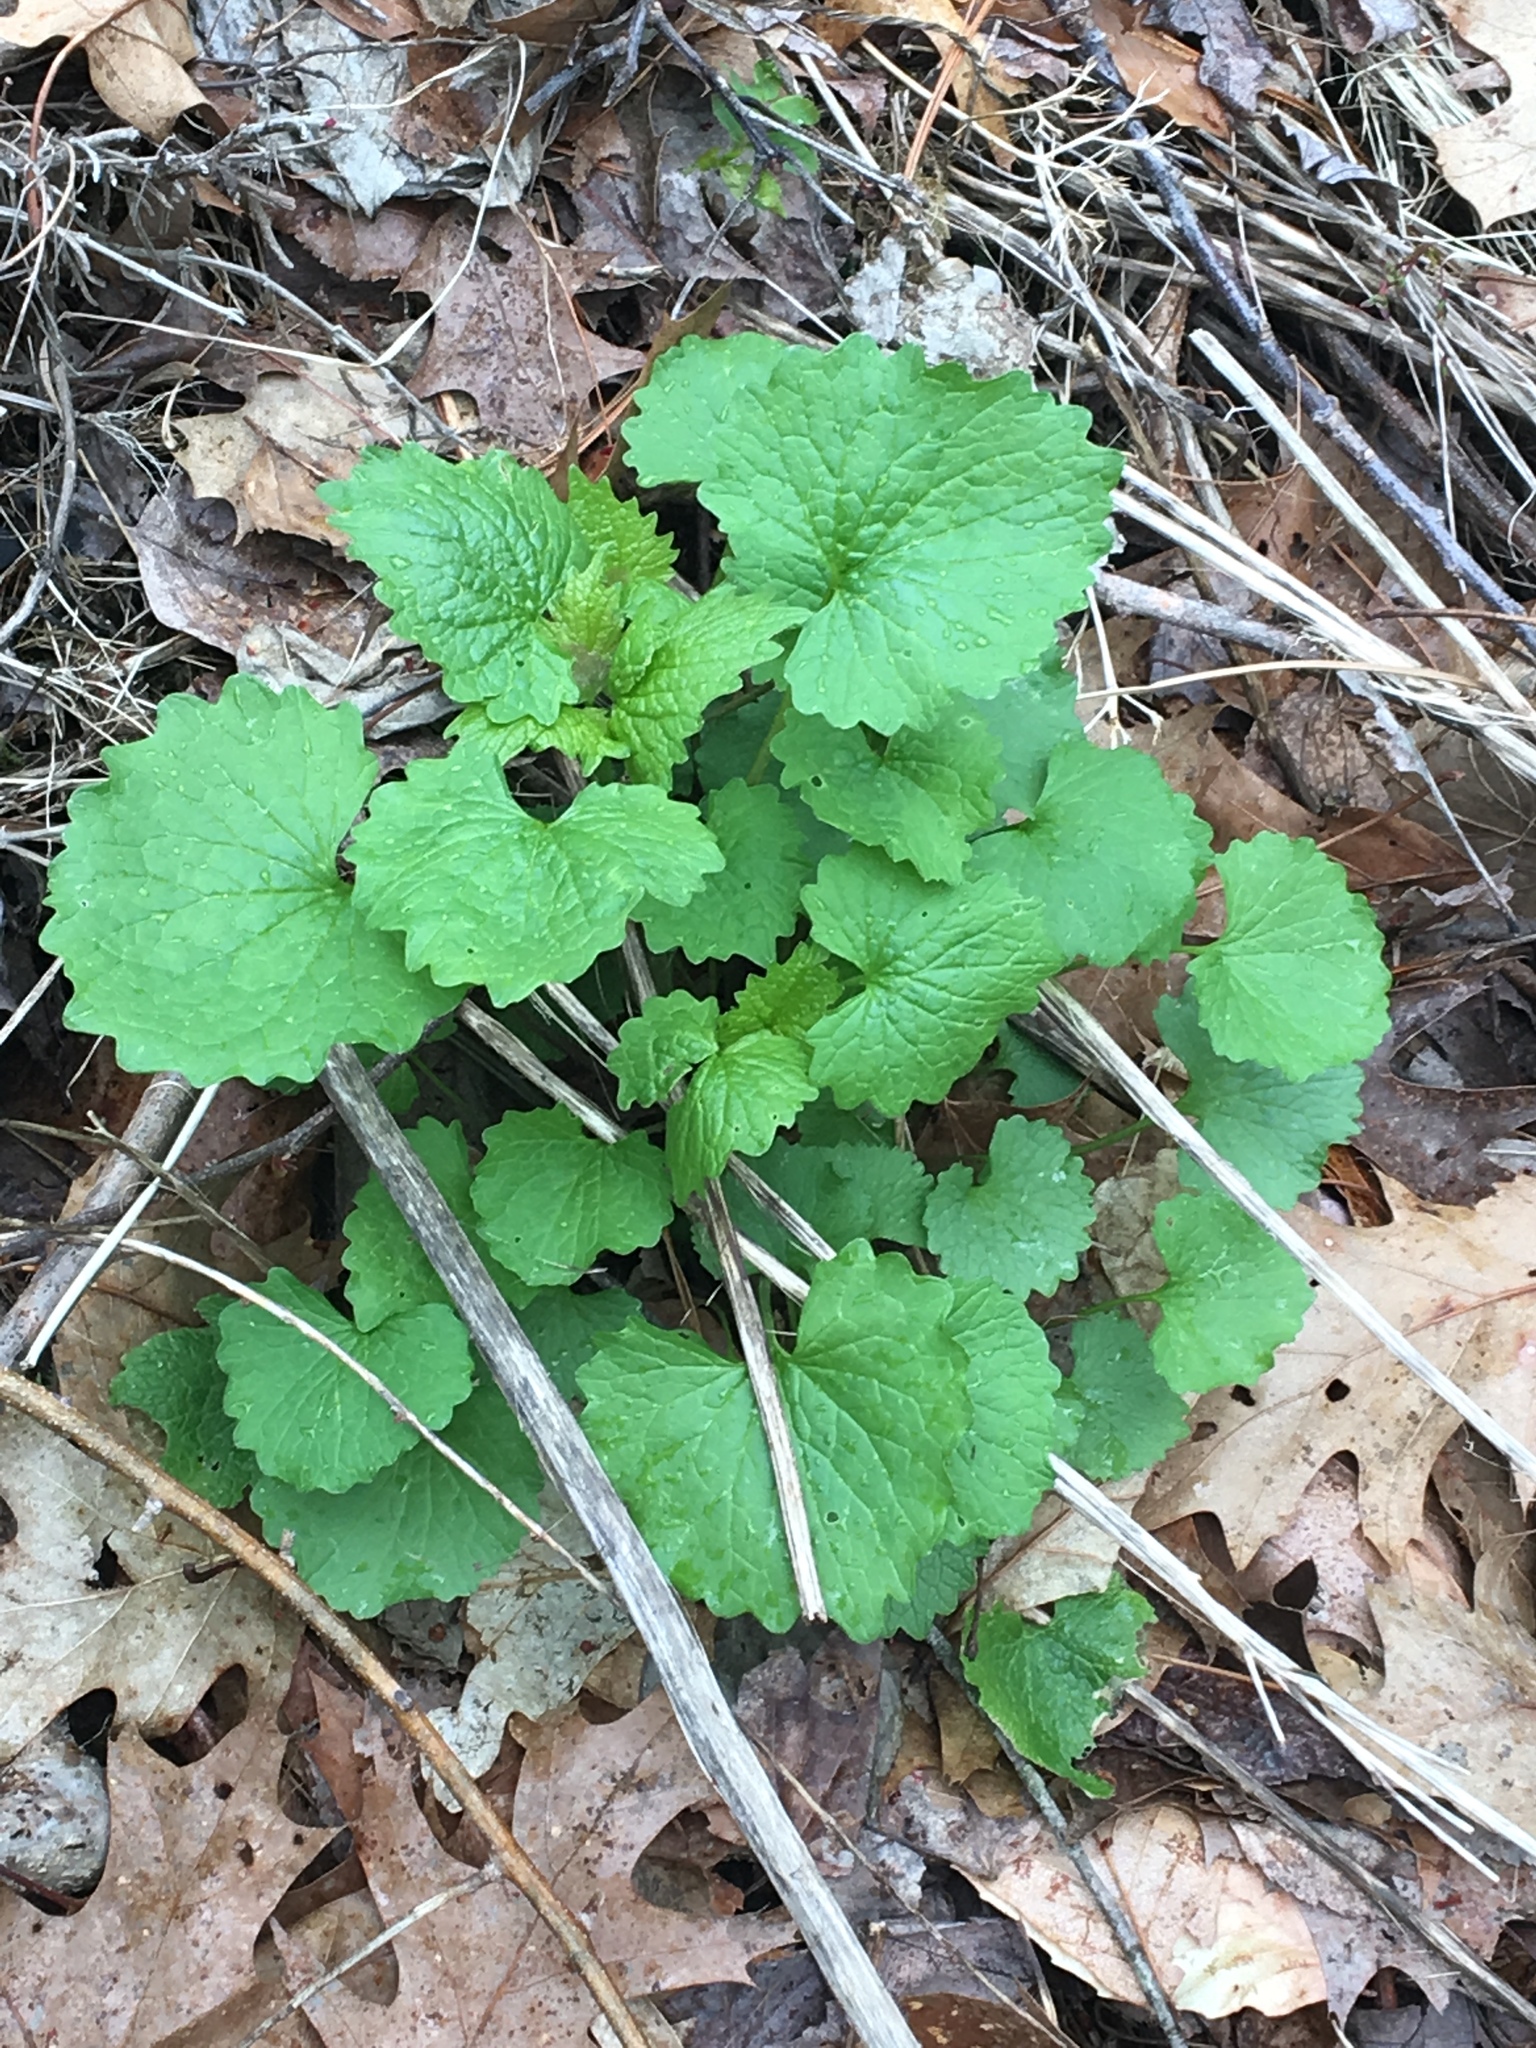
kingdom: Plantae
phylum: Tracheophyta
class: Magnoliopsida
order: Brassicales
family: Brassicaceae
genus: Alliaria
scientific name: Alliaria petiolata
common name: Garlic mustard
